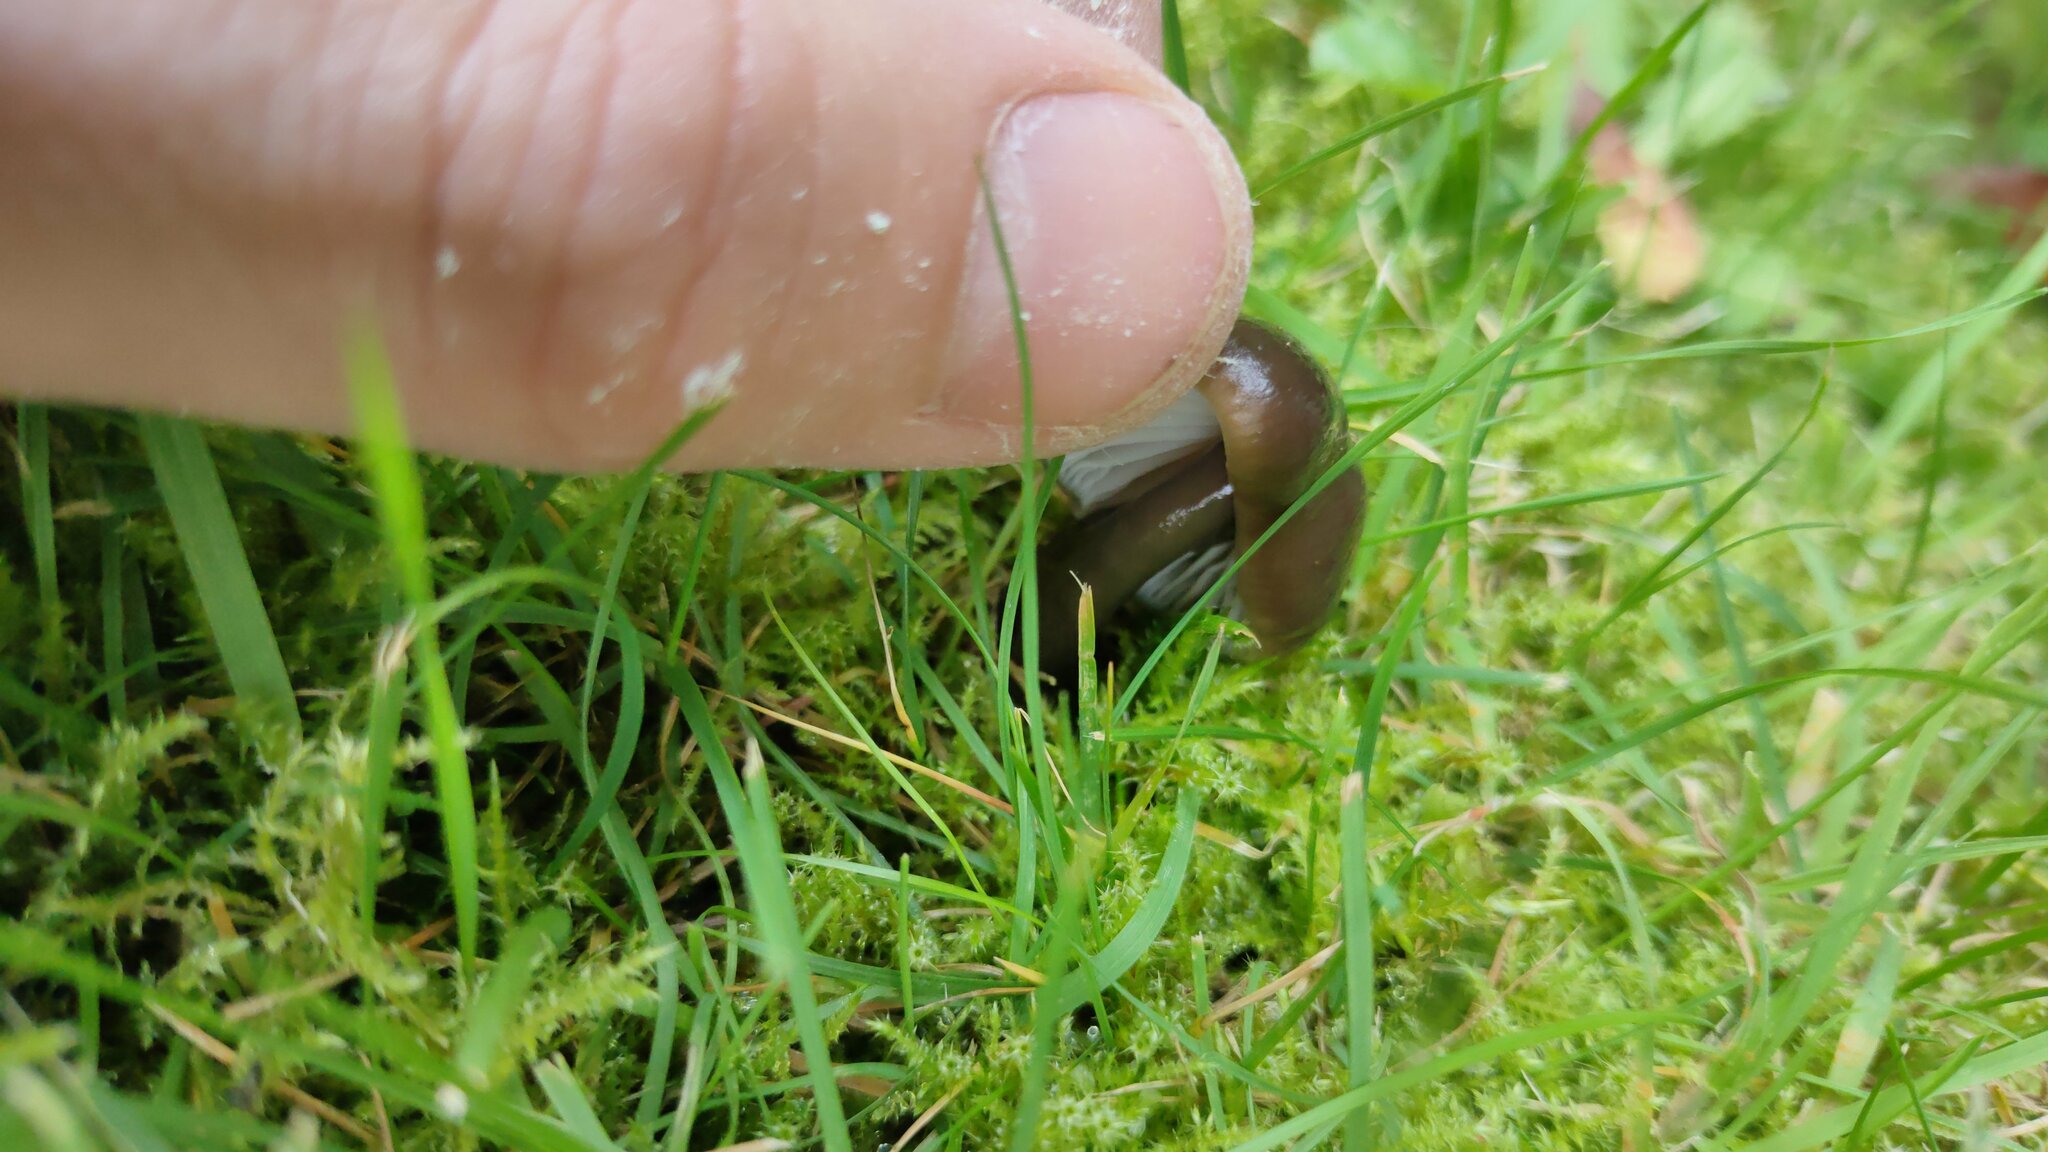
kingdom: Fungi
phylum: Basidiomycota
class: Agaricomycetes
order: Agaricales
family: Hygrophoraceae
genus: Gliophorus
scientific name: Gliophorus irrigatus
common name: Slimy waxcap
